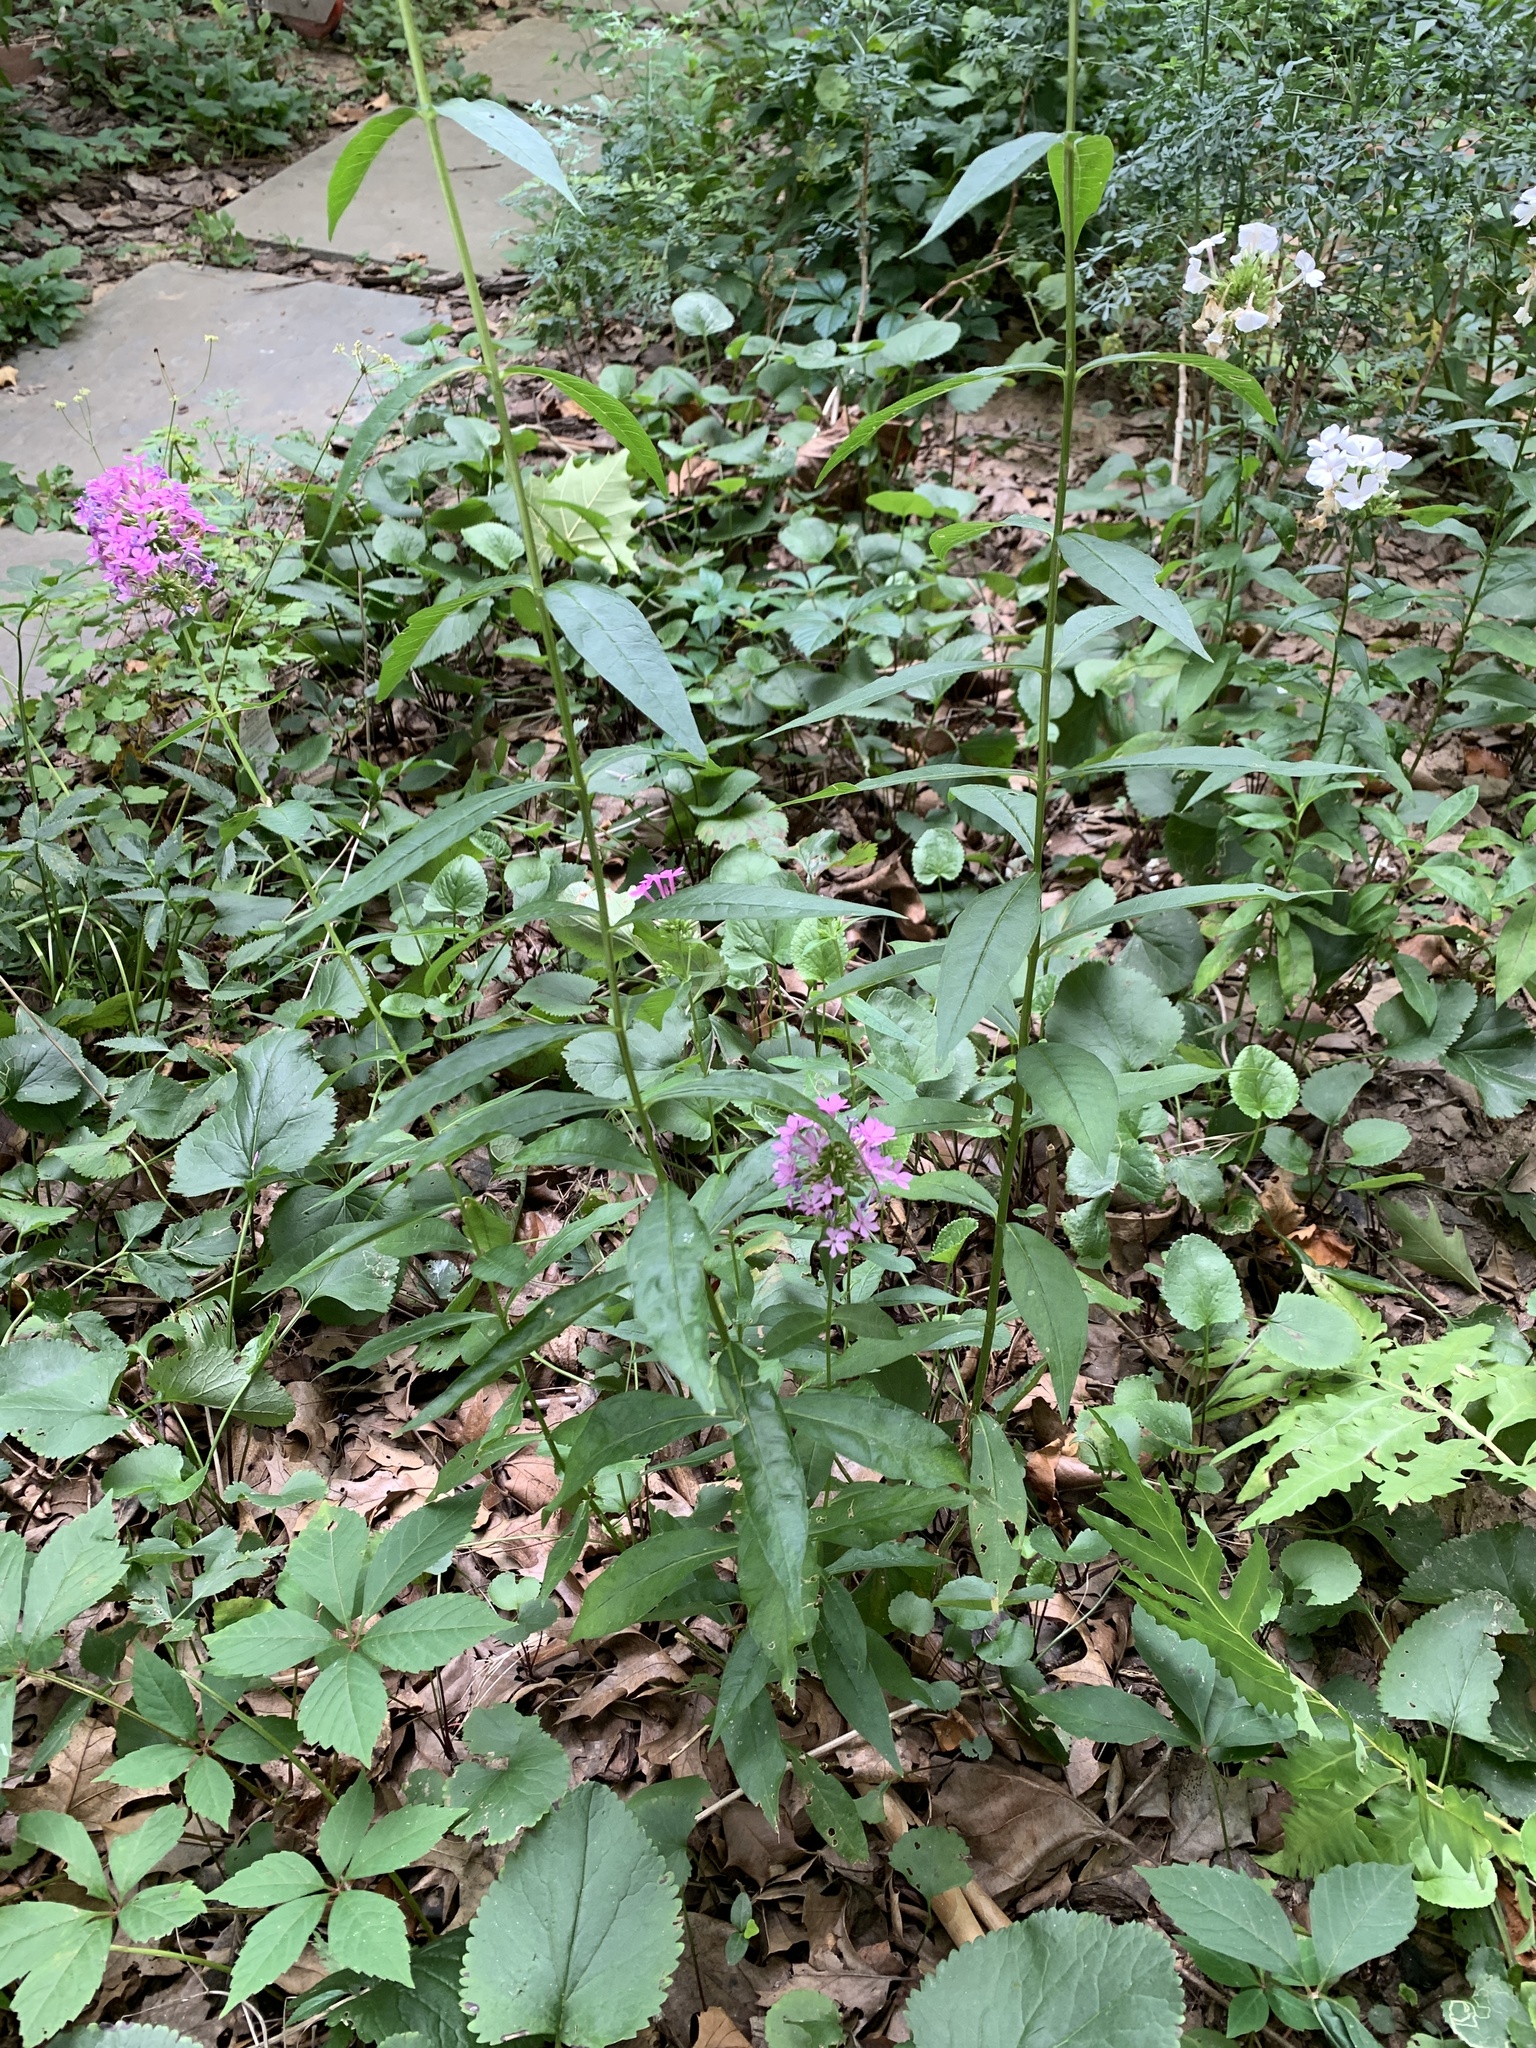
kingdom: Plantae
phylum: Tracheophyta
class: Magnoliopsida
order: Ericales
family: Polemoniaceae
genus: Phlox
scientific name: Phlox paniculata
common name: Fall phlox
